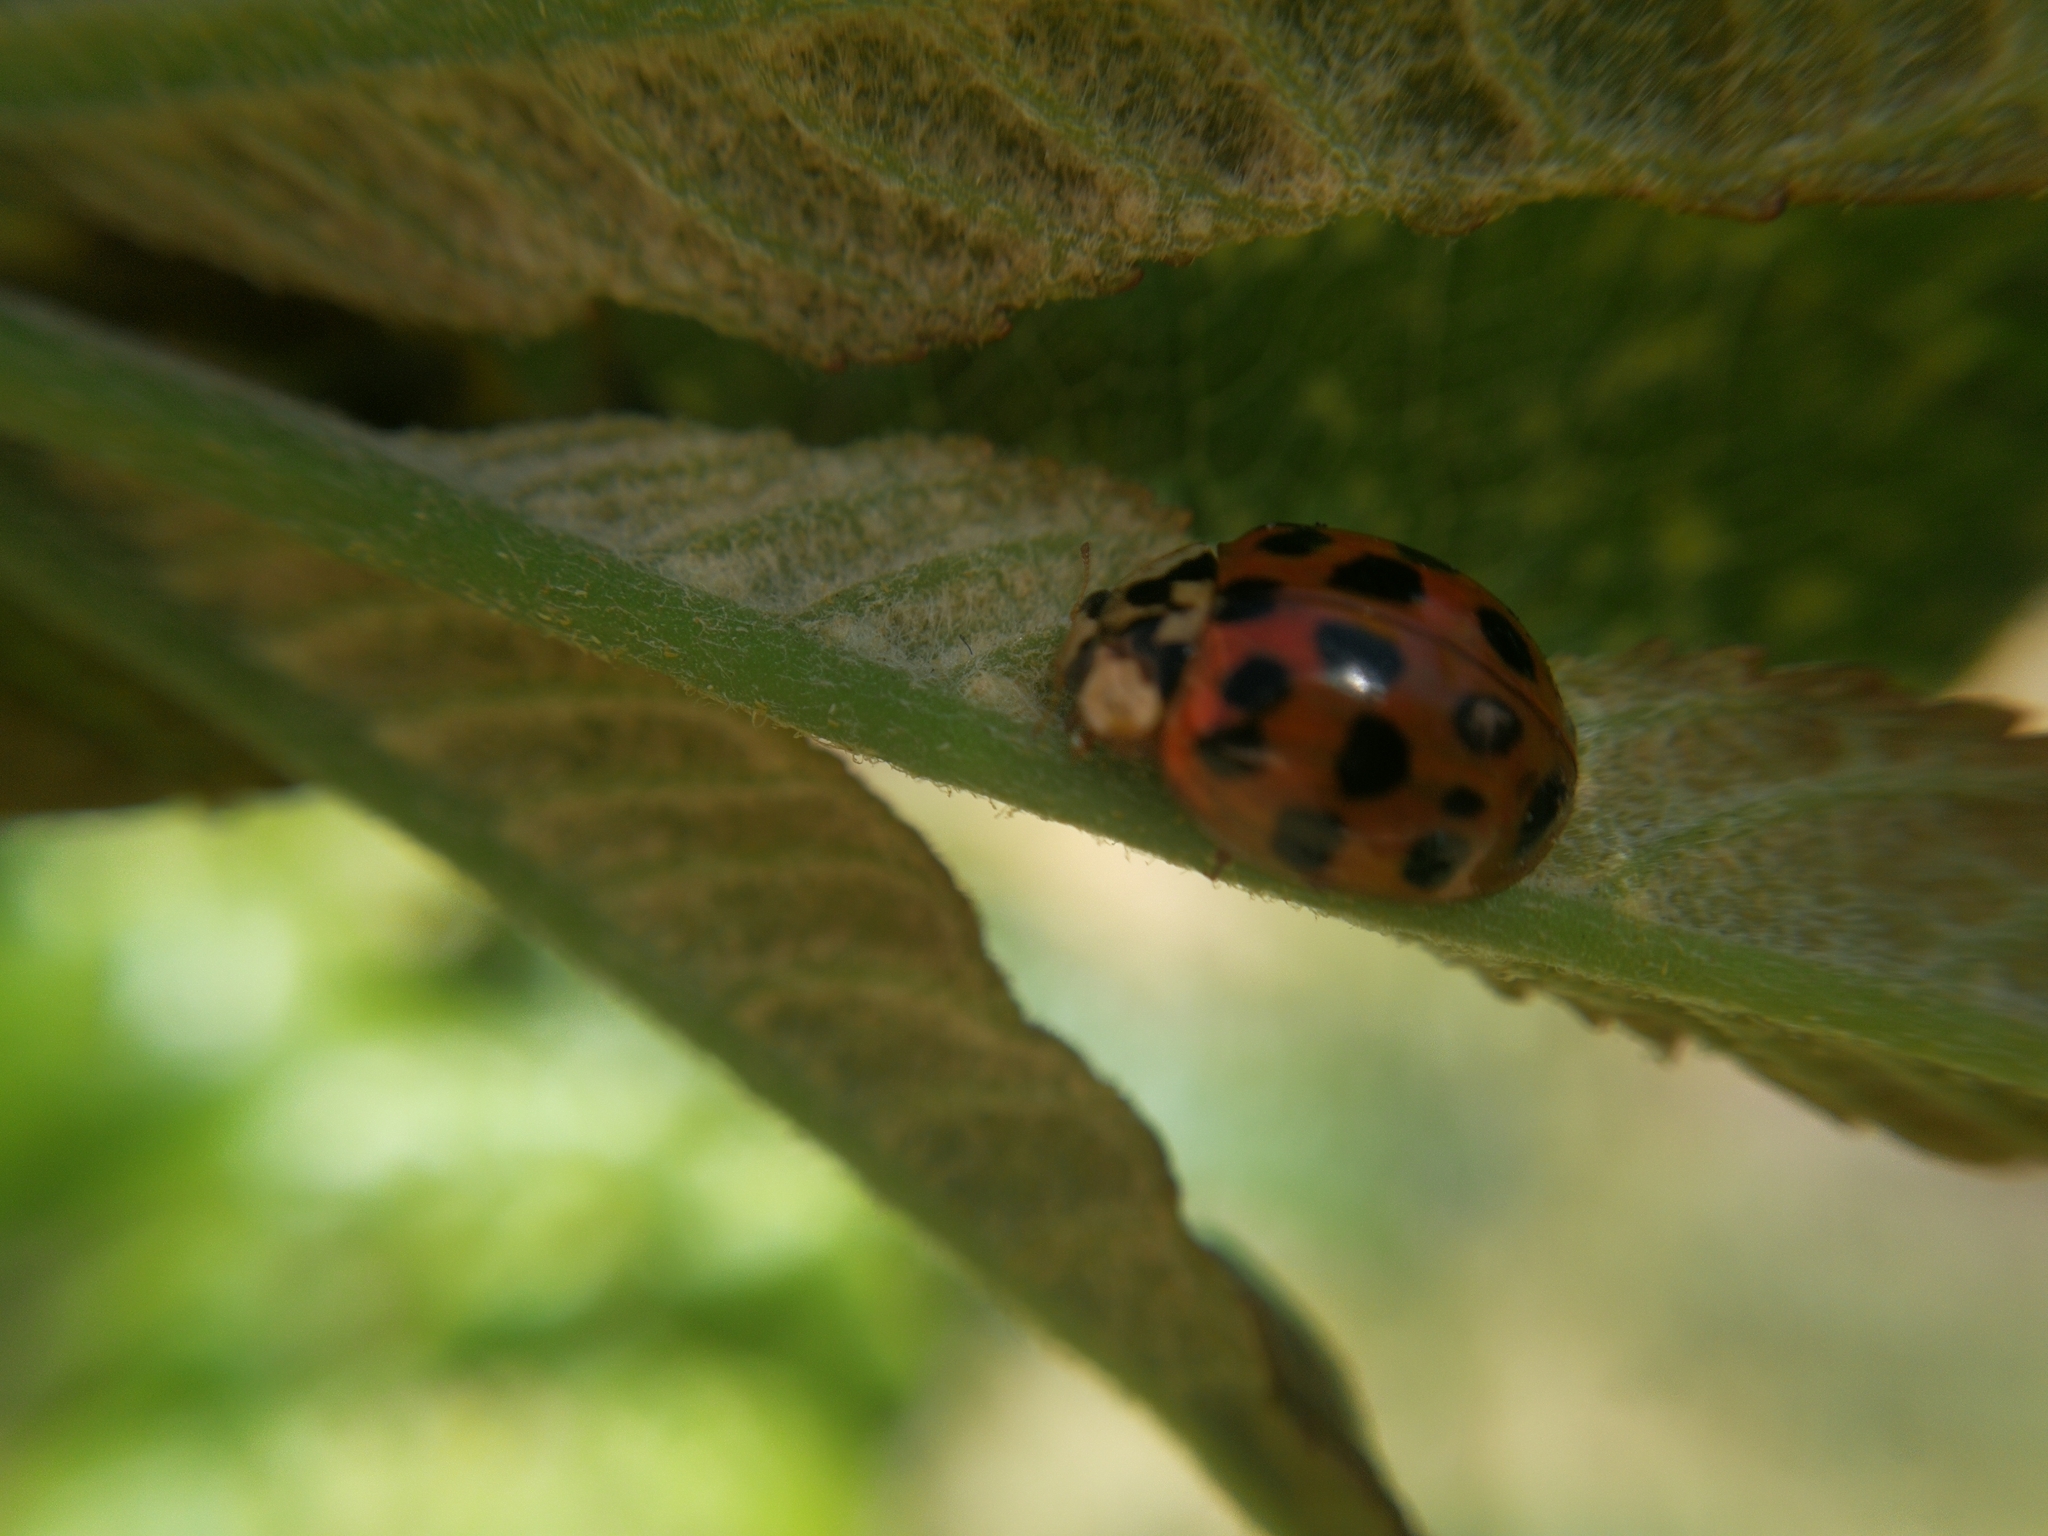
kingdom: Animalia
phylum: Arthropoda
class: Insecta
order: Coleoptera
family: Coccinellidae
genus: Harmonia
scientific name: Harmonia axyridis
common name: Harlequin ladybird
